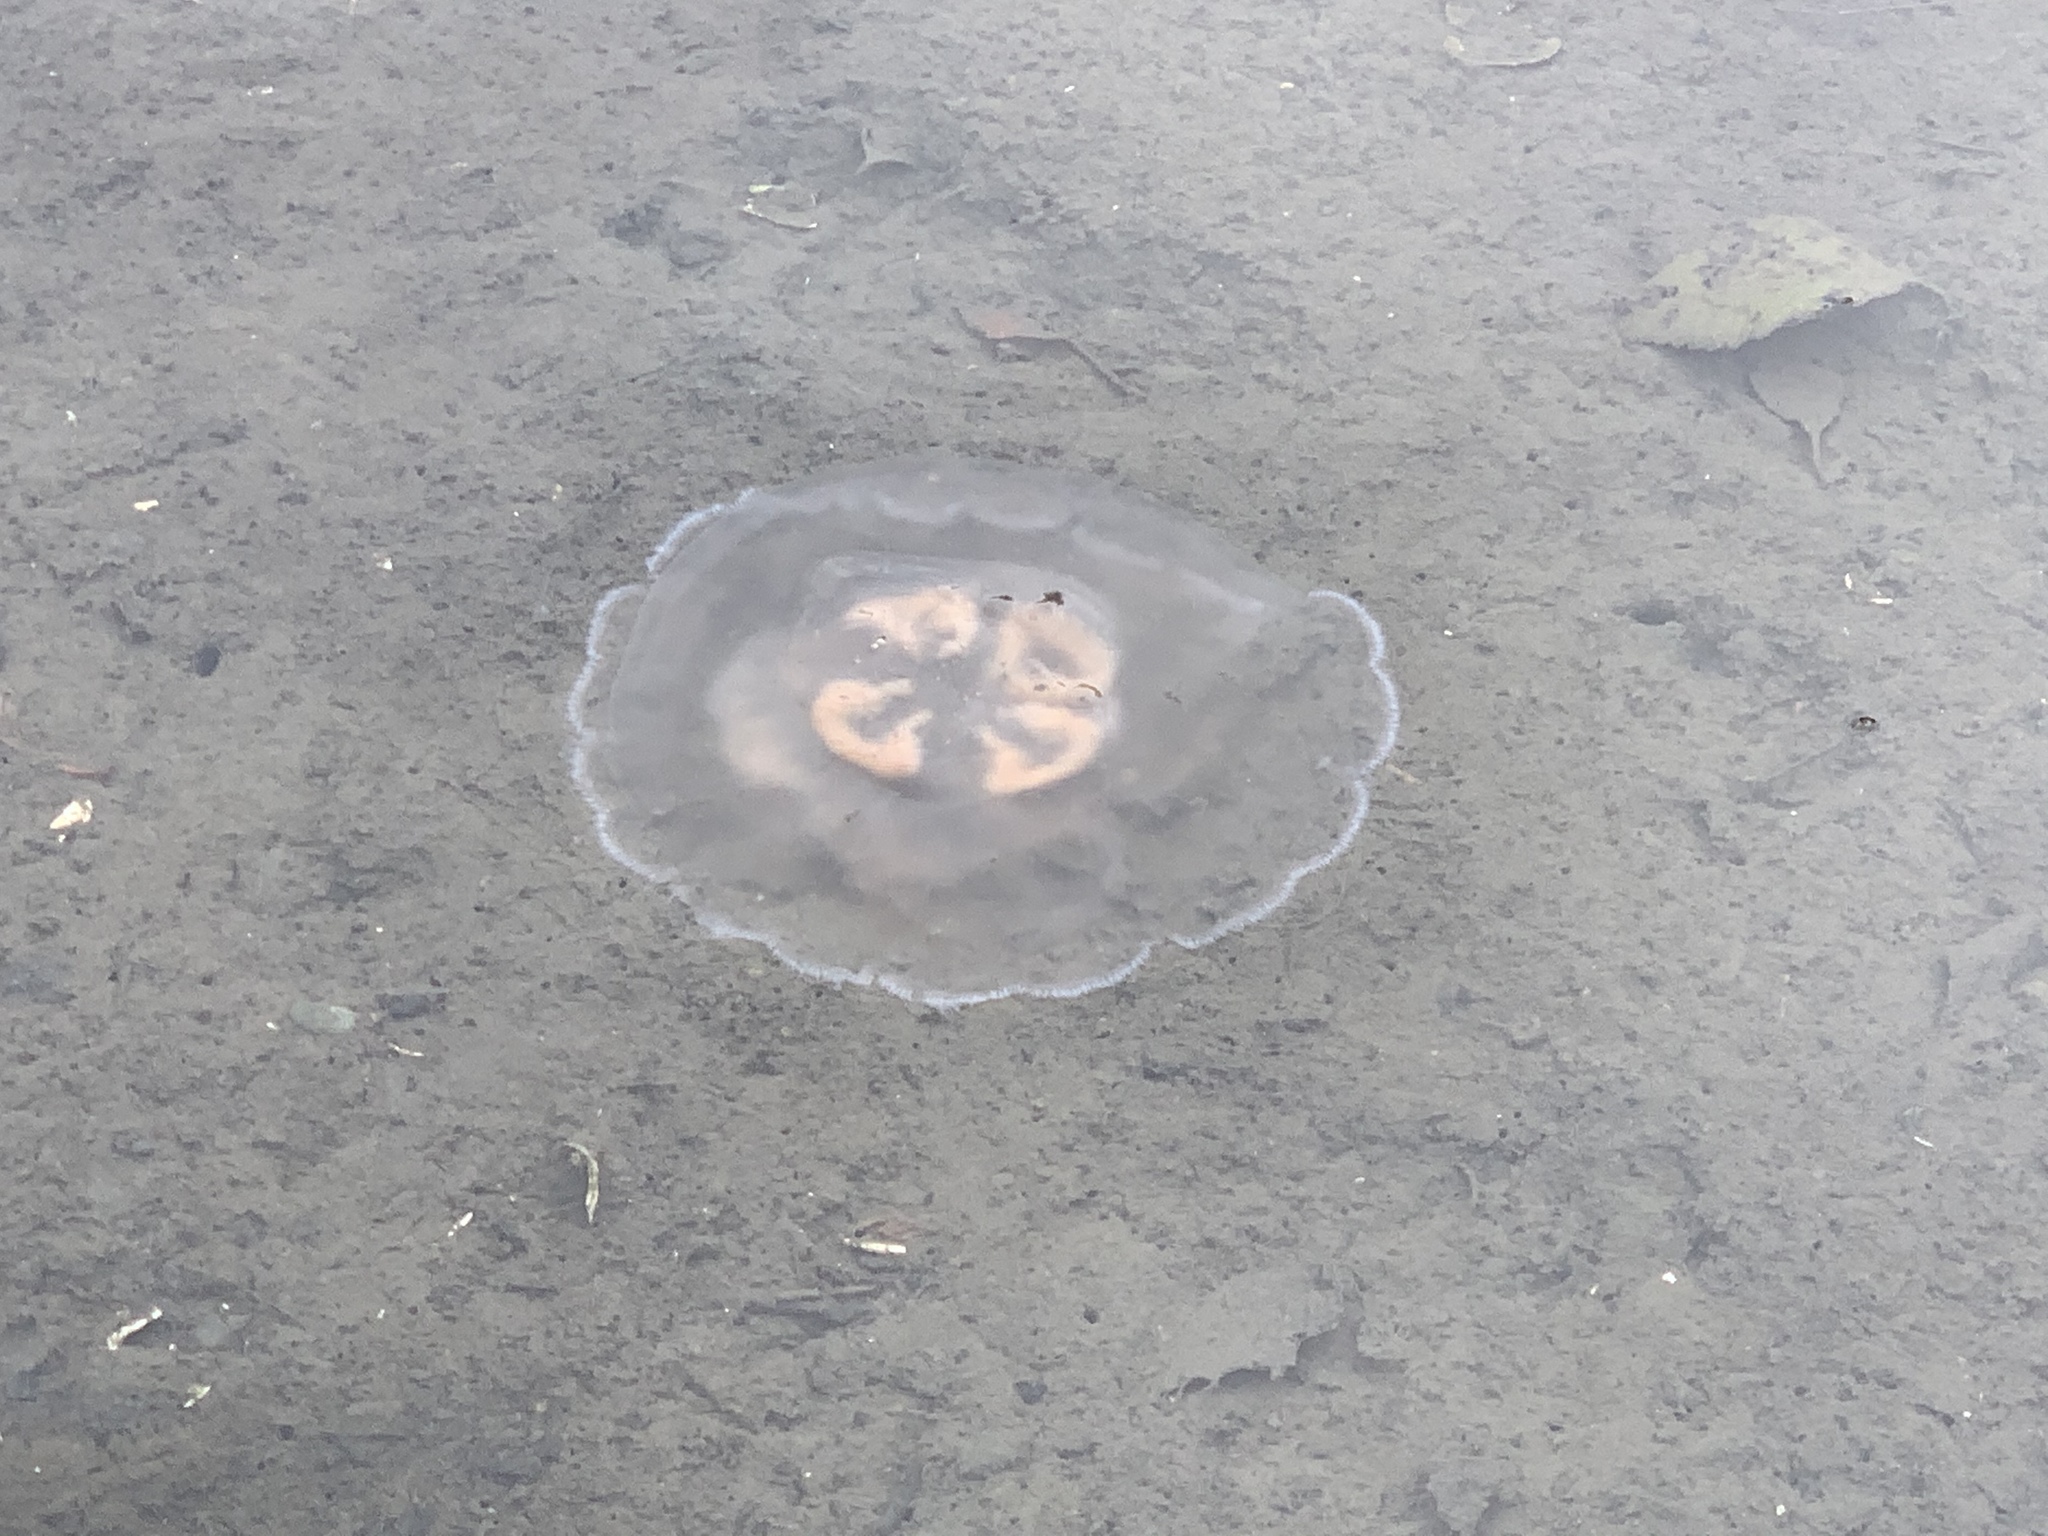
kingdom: Animalia
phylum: Cnidaria
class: Scyphozoa
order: Semaeostomeae
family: Ulmaridae
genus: Aurelia
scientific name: Aurelia labiata
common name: Pacific moon jelly
